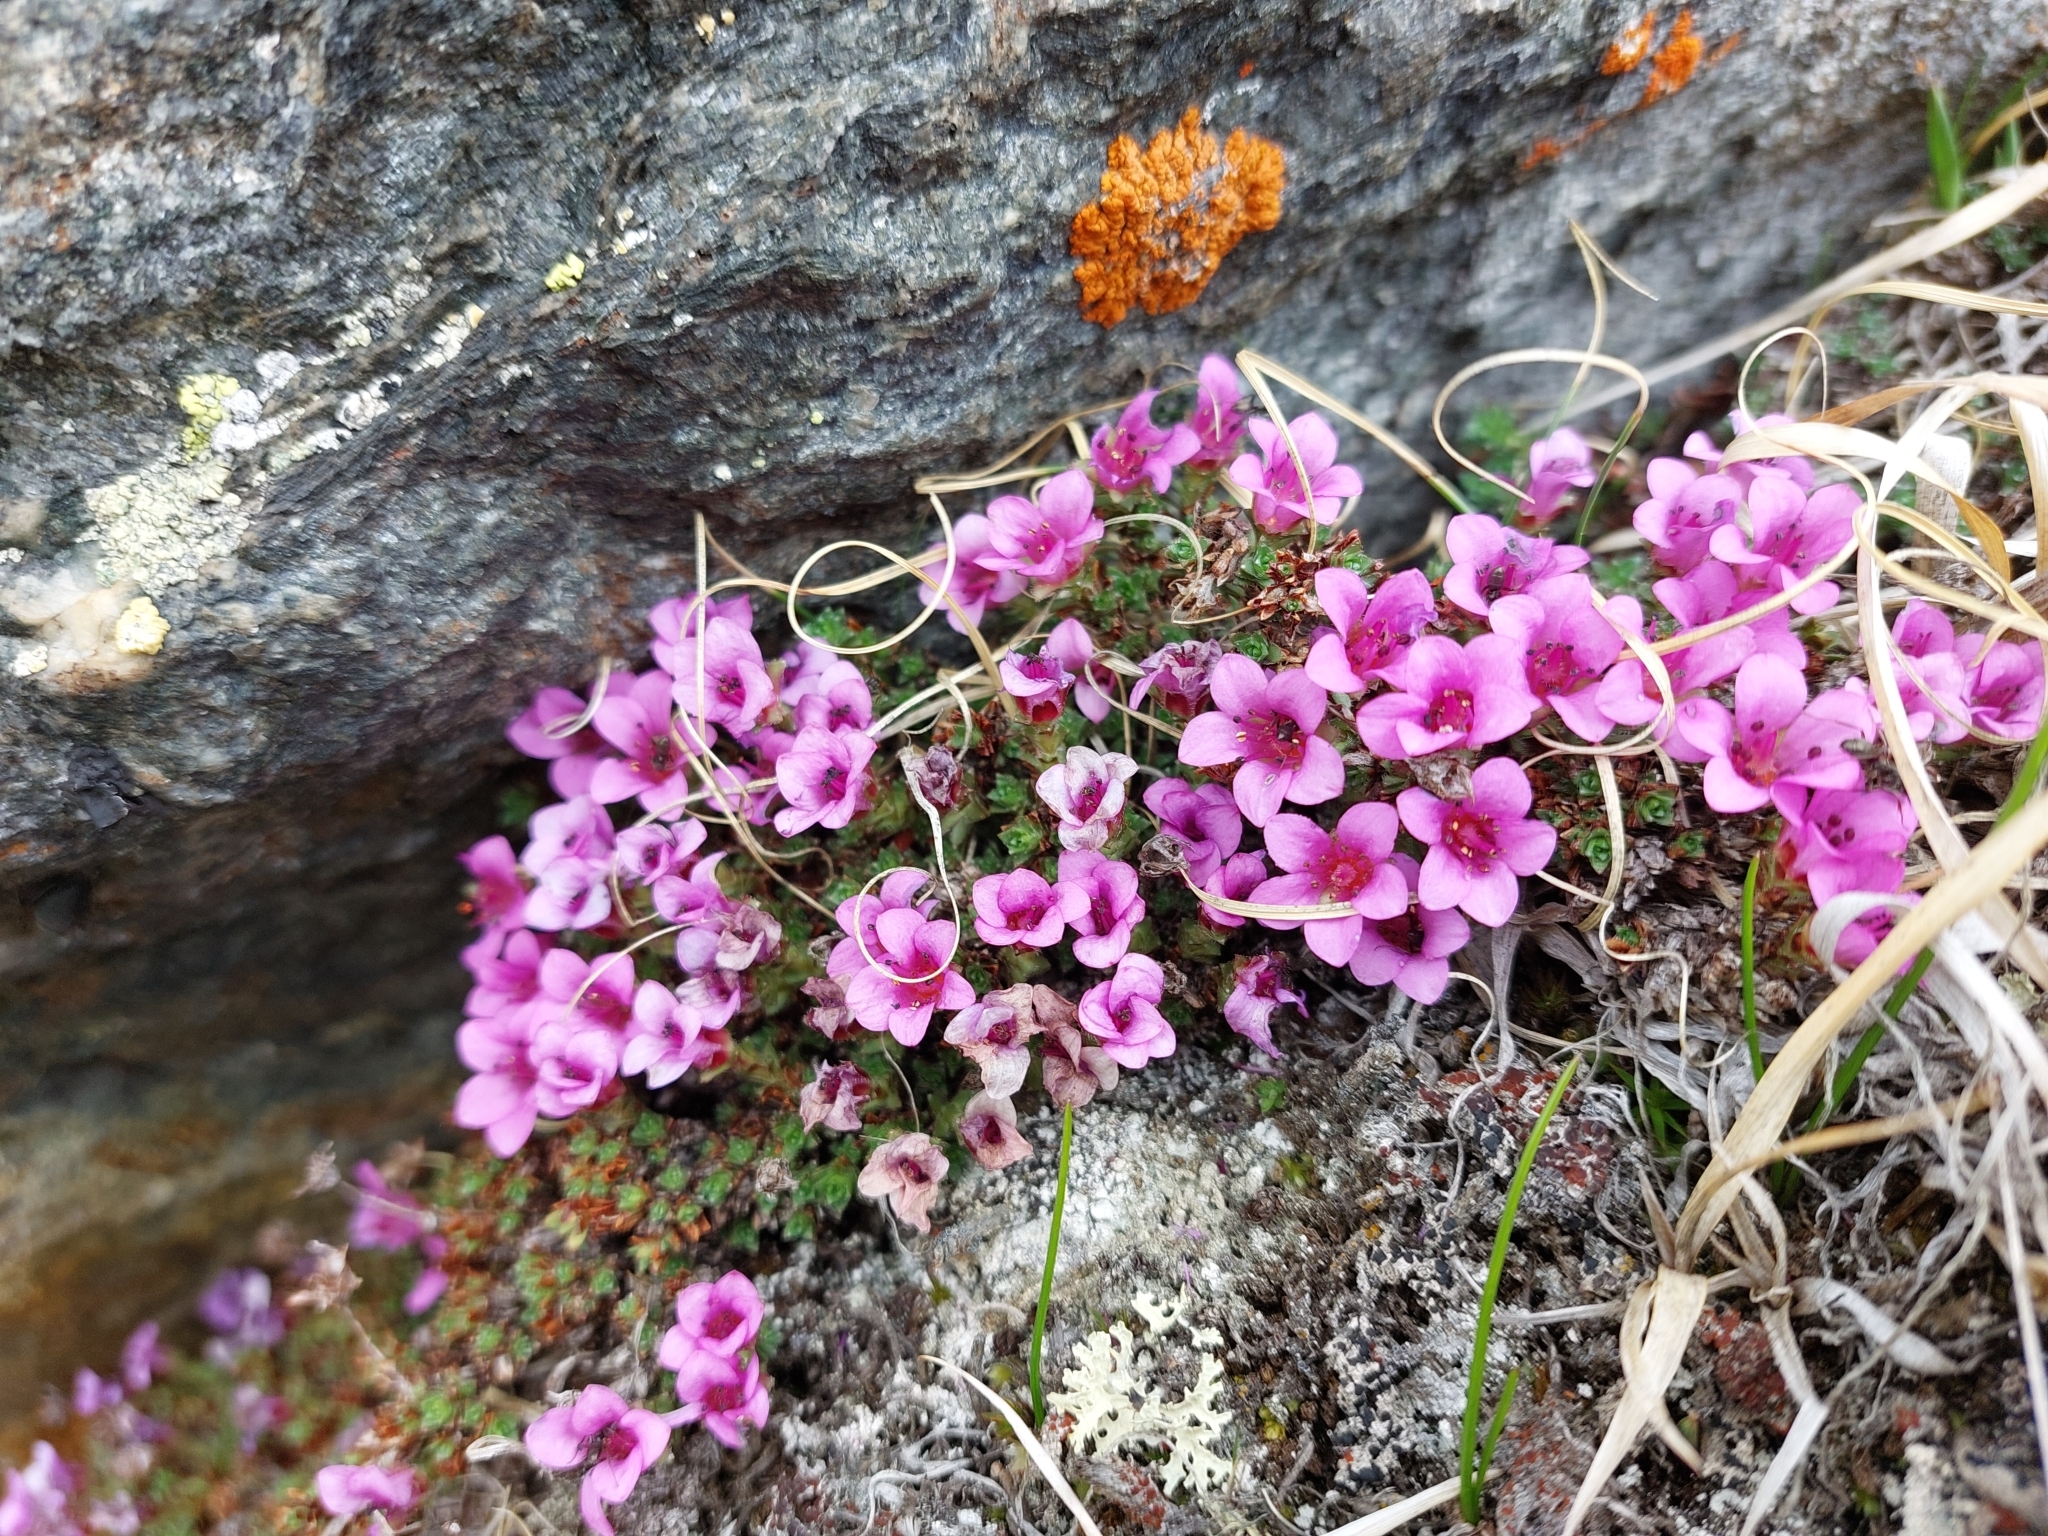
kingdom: Plantae
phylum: Tracheophyta
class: Magnoliopsida
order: Saxifragales
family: Saxifragaceae
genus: Saxifraga
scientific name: Saxifraga oppositifolia
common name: Purple saxifrage
